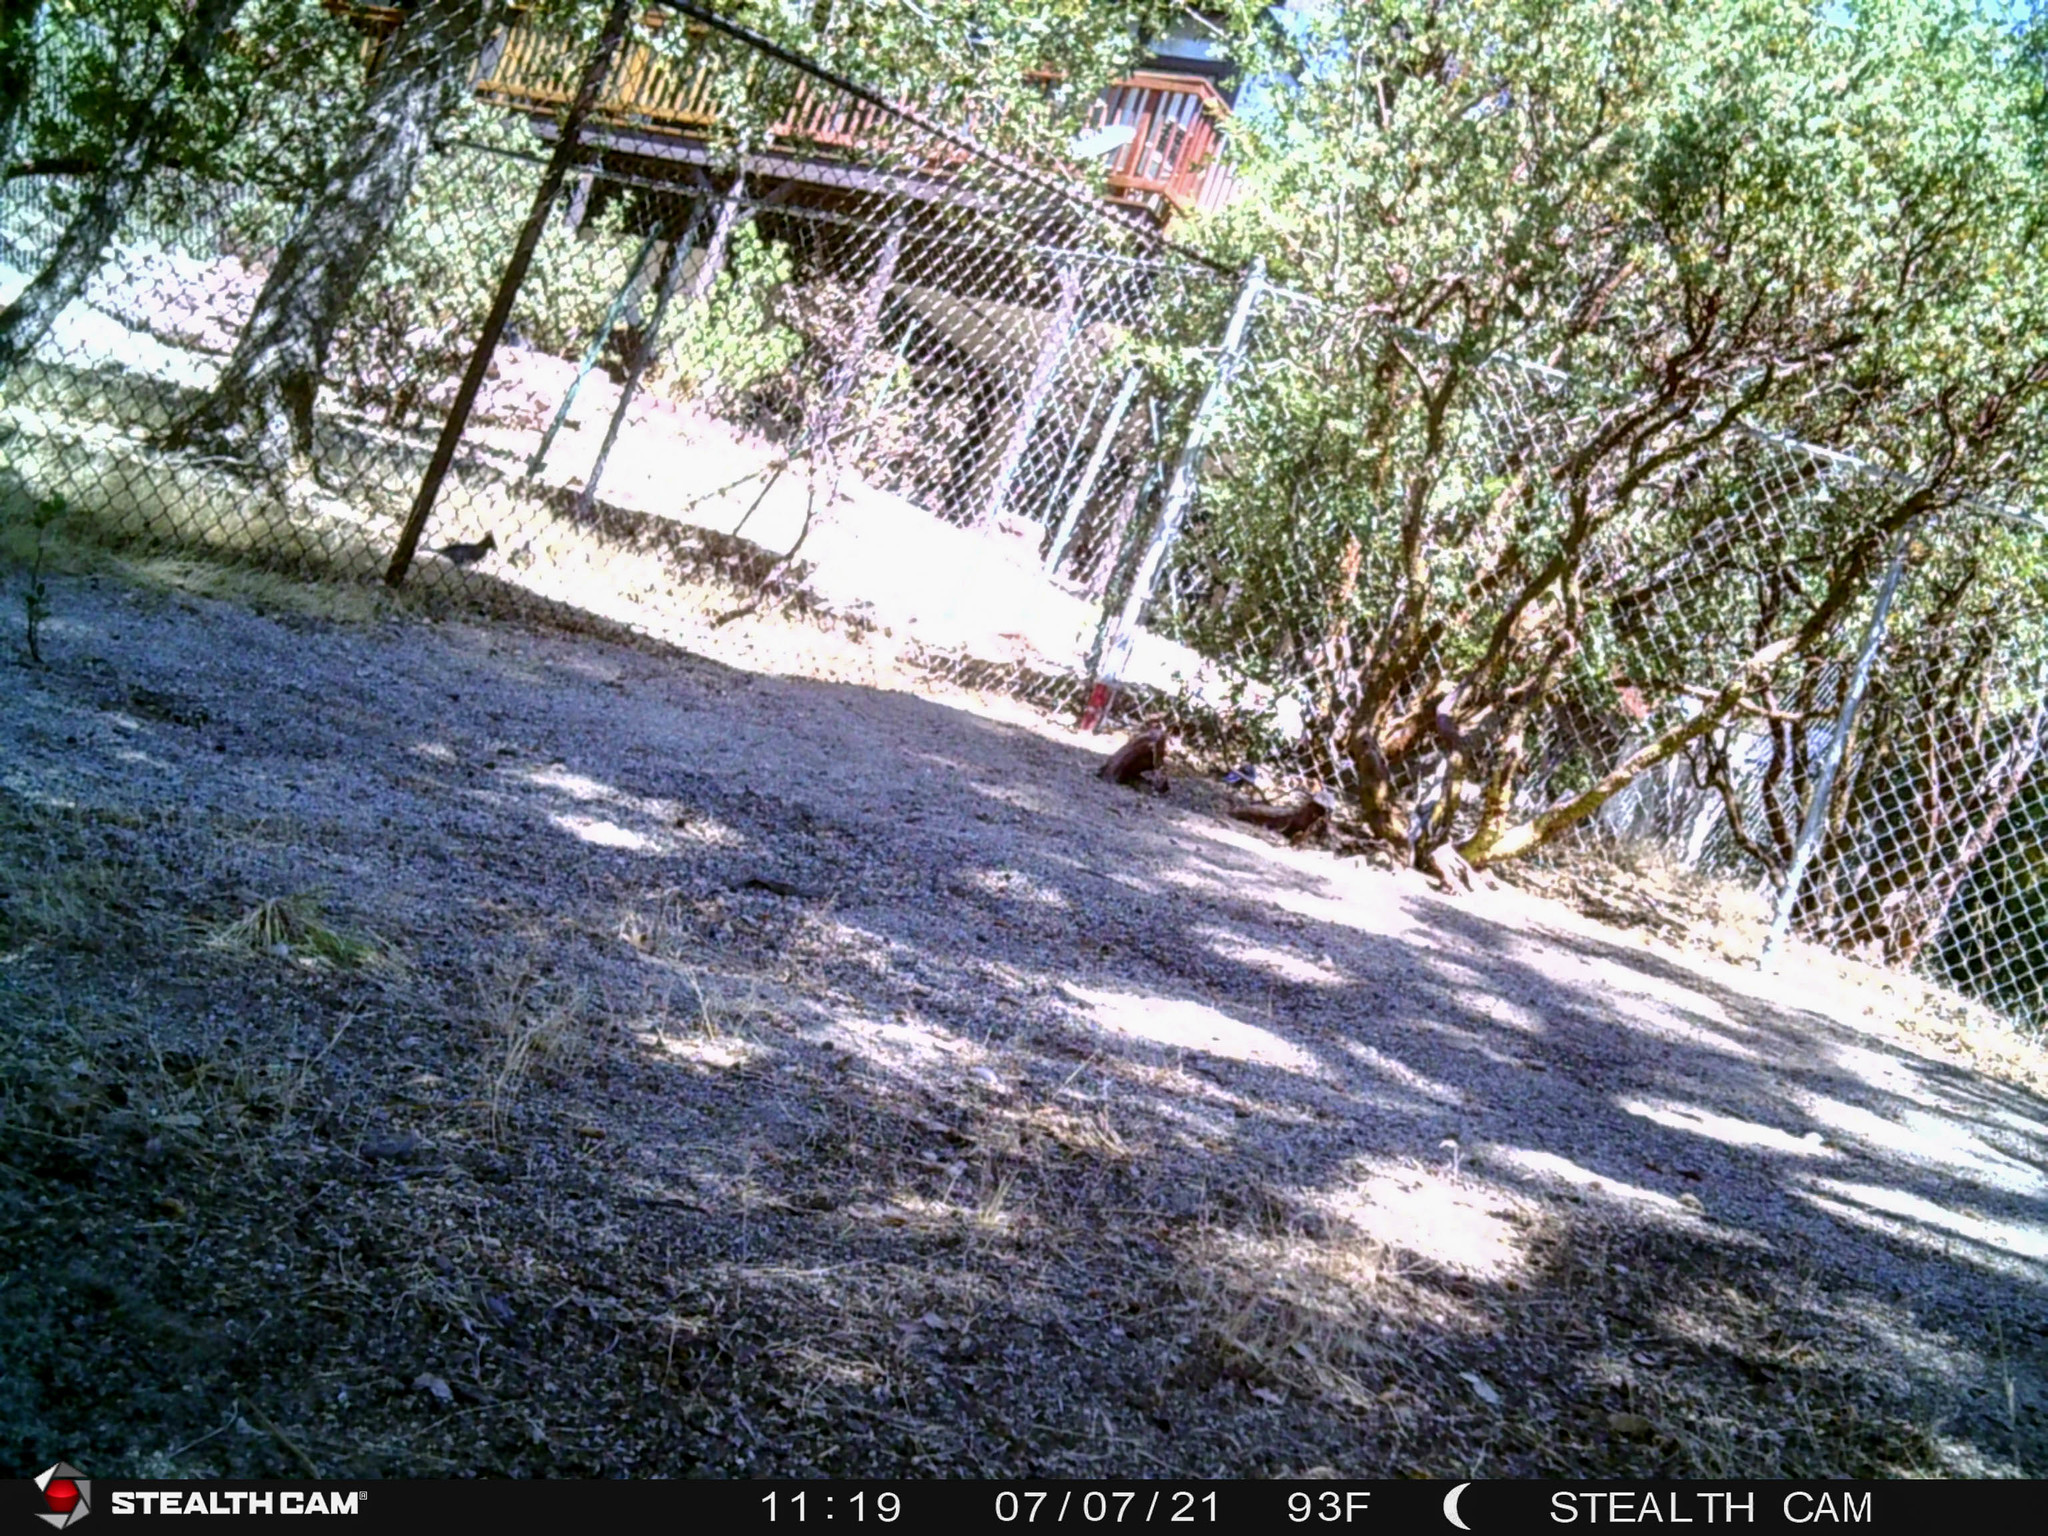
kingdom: Animalia
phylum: Chordata
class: Aves
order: Passeriformes
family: Corvidae
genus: Cyanocitta
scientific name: Cyanocitta stelleri
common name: Steller's jay
